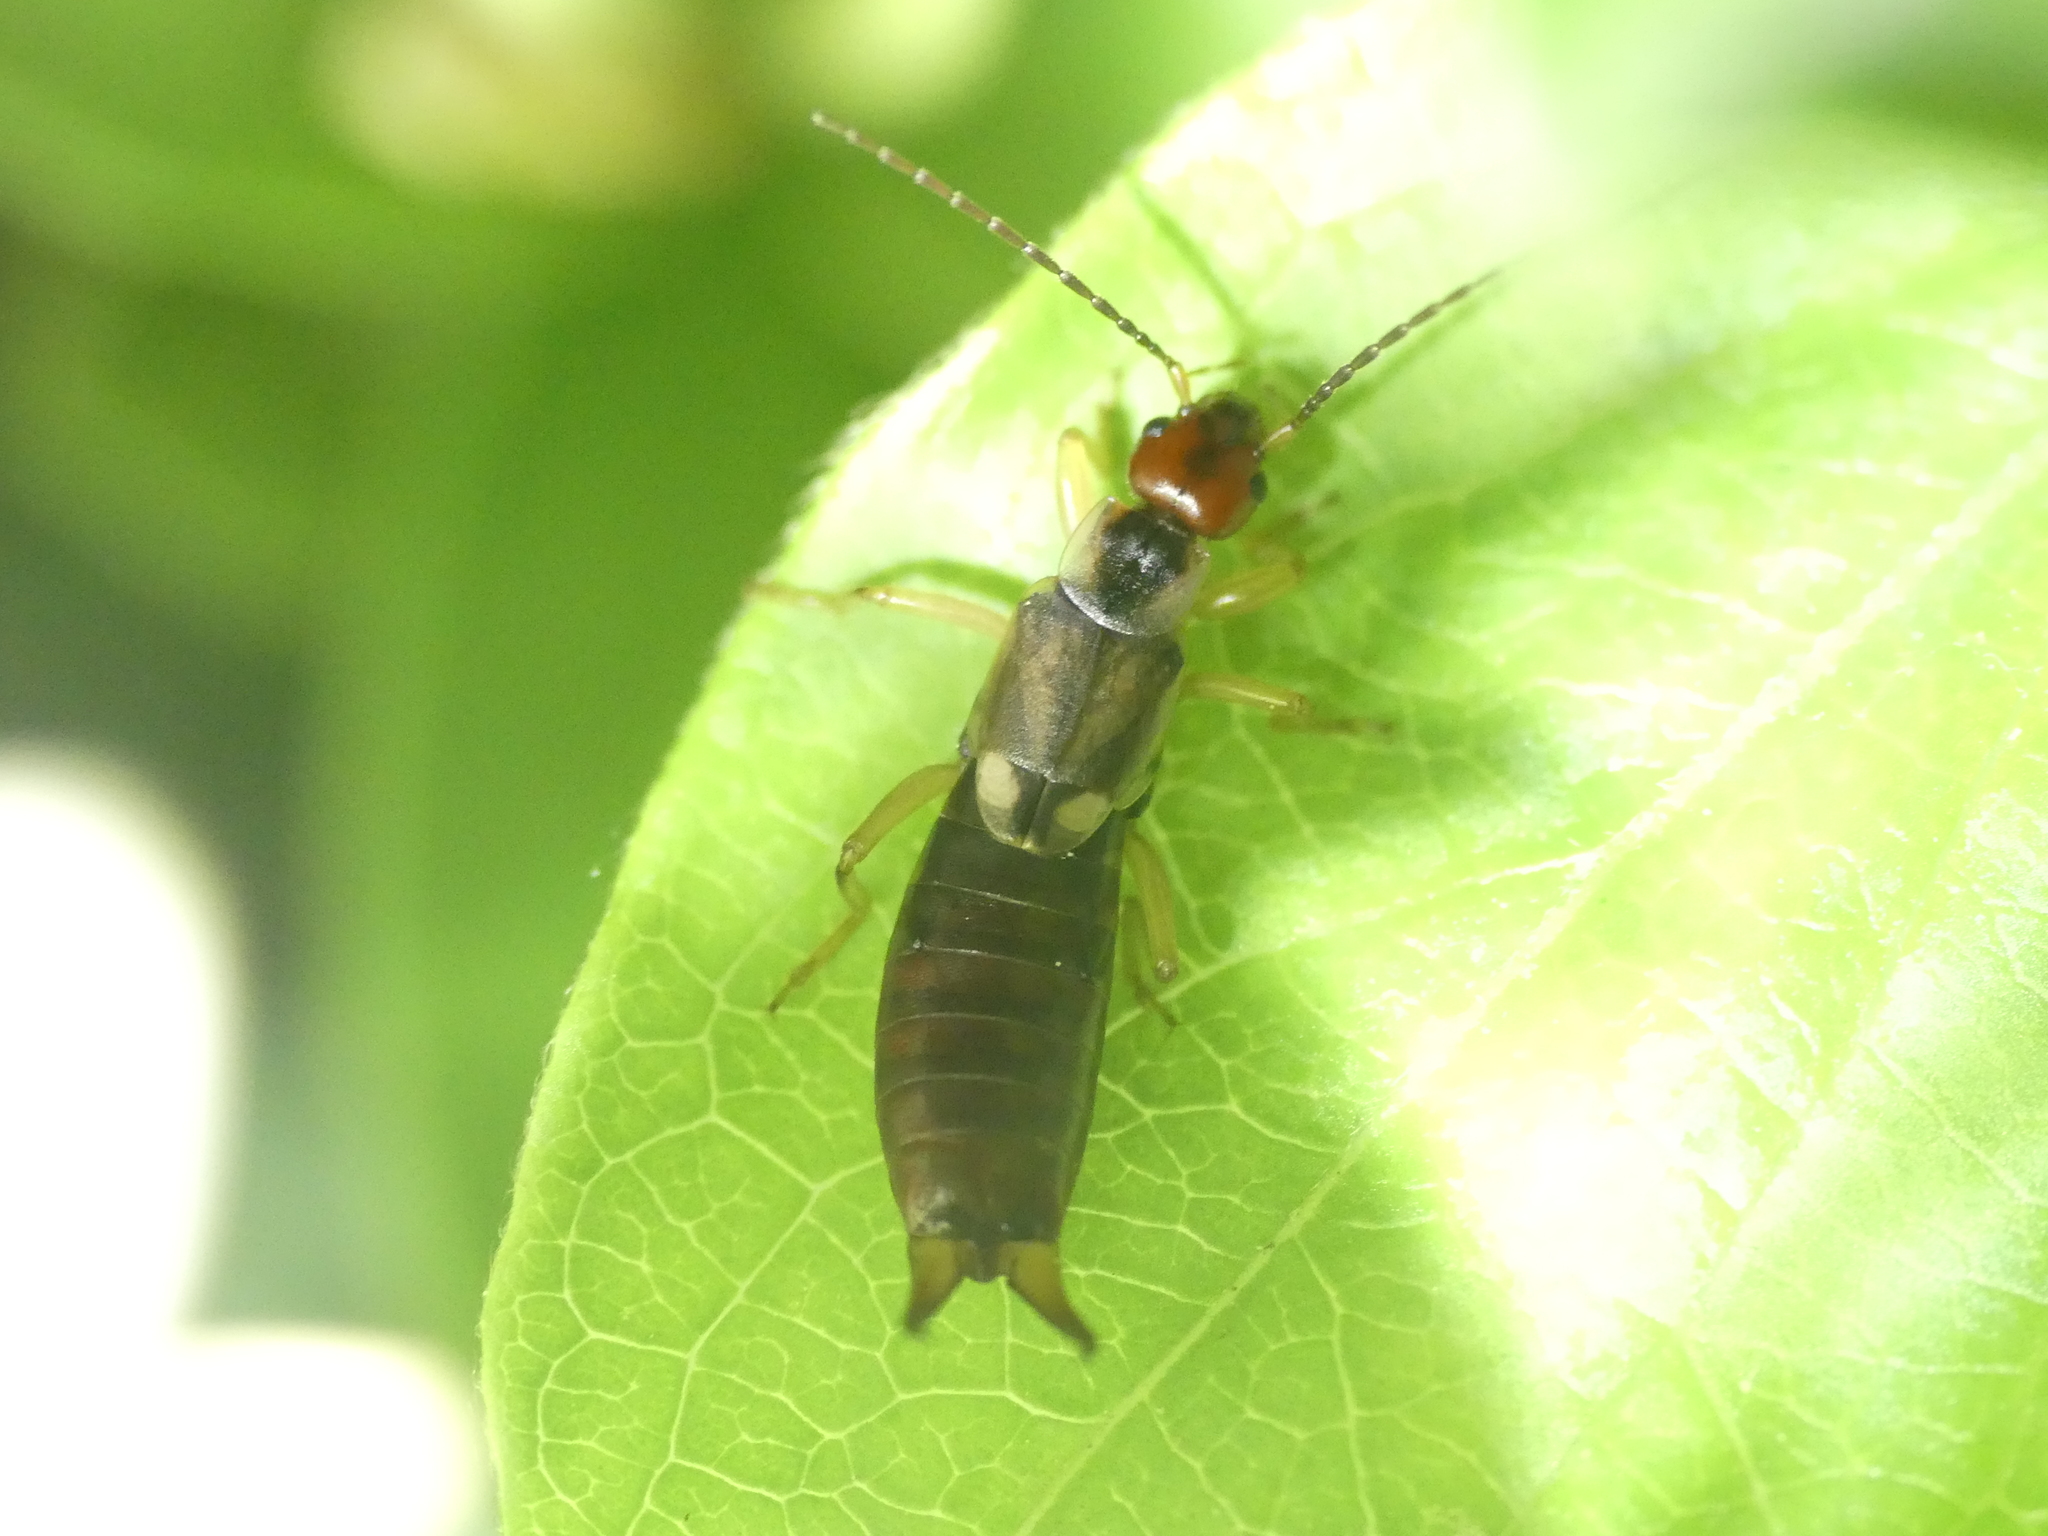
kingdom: Animalia
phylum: Arthropoda
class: Insecta
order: Dermaptera
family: Forficulidae
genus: Forficula
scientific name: Forficula
